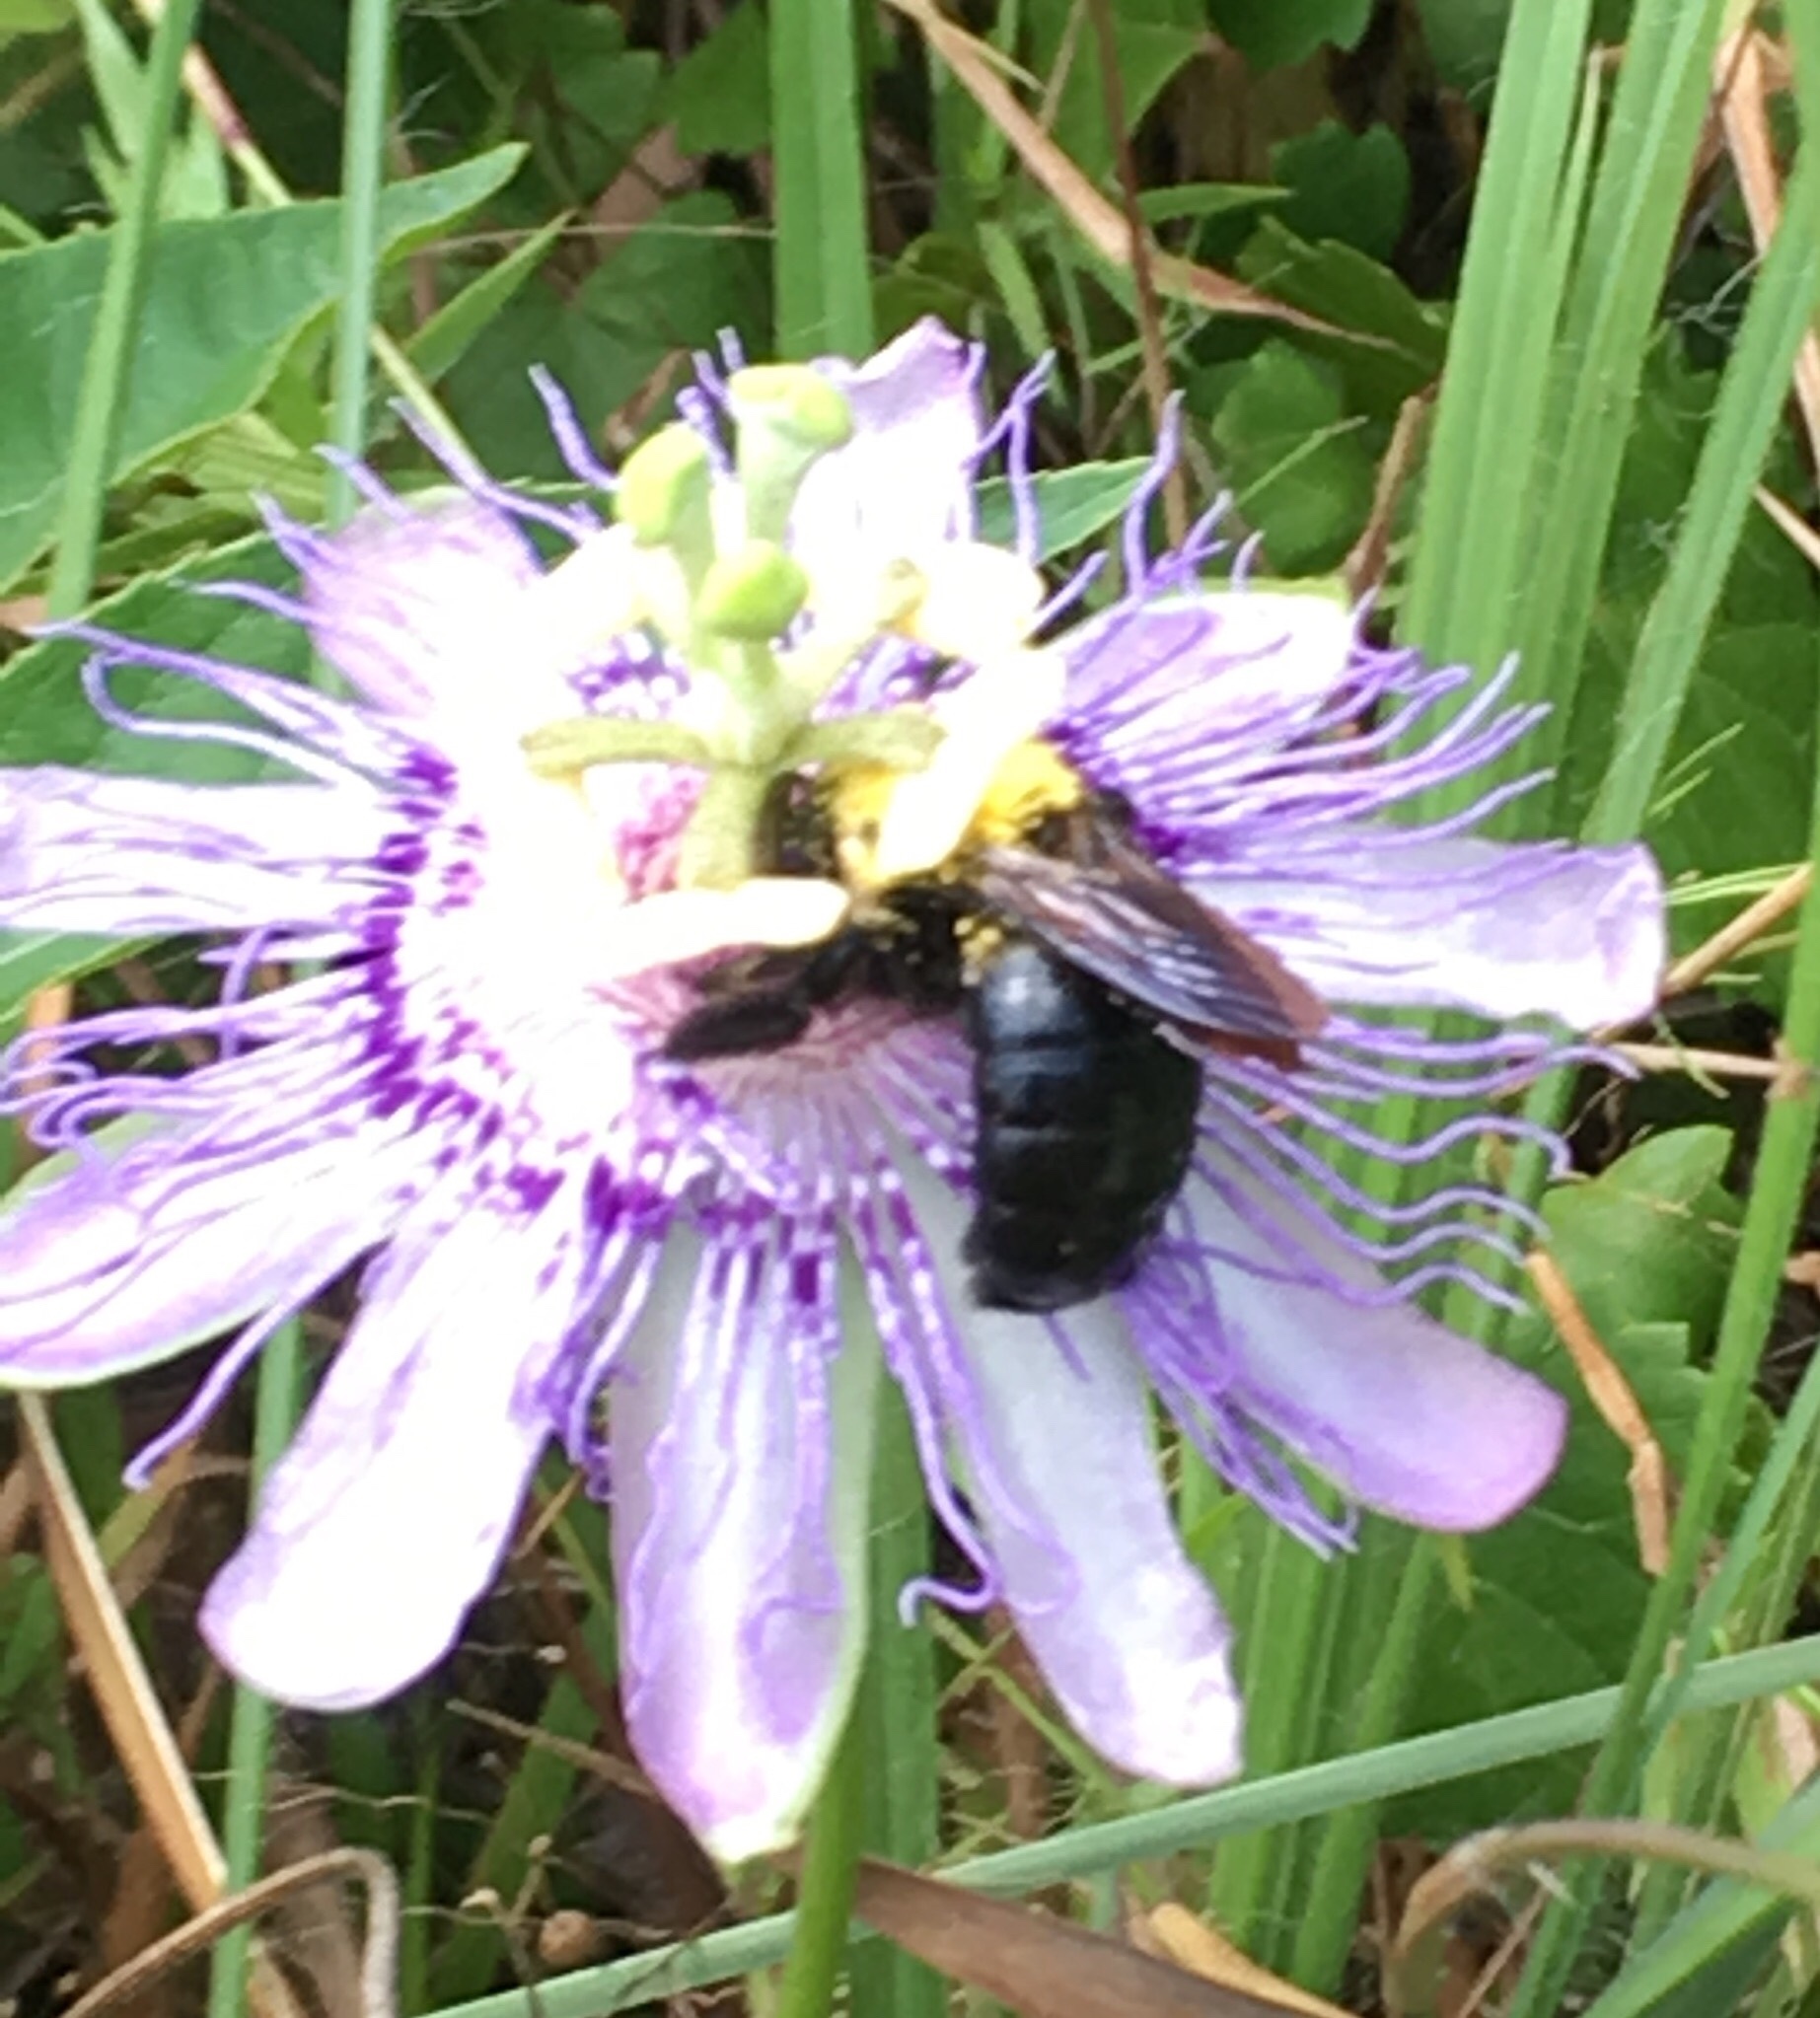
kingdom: Animalia
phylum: Arthropoda
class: Insecta
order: Hymenoptera
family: Apidae
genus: Xylocopa
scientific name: Xylocopa virginica
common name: Carpenter bee
